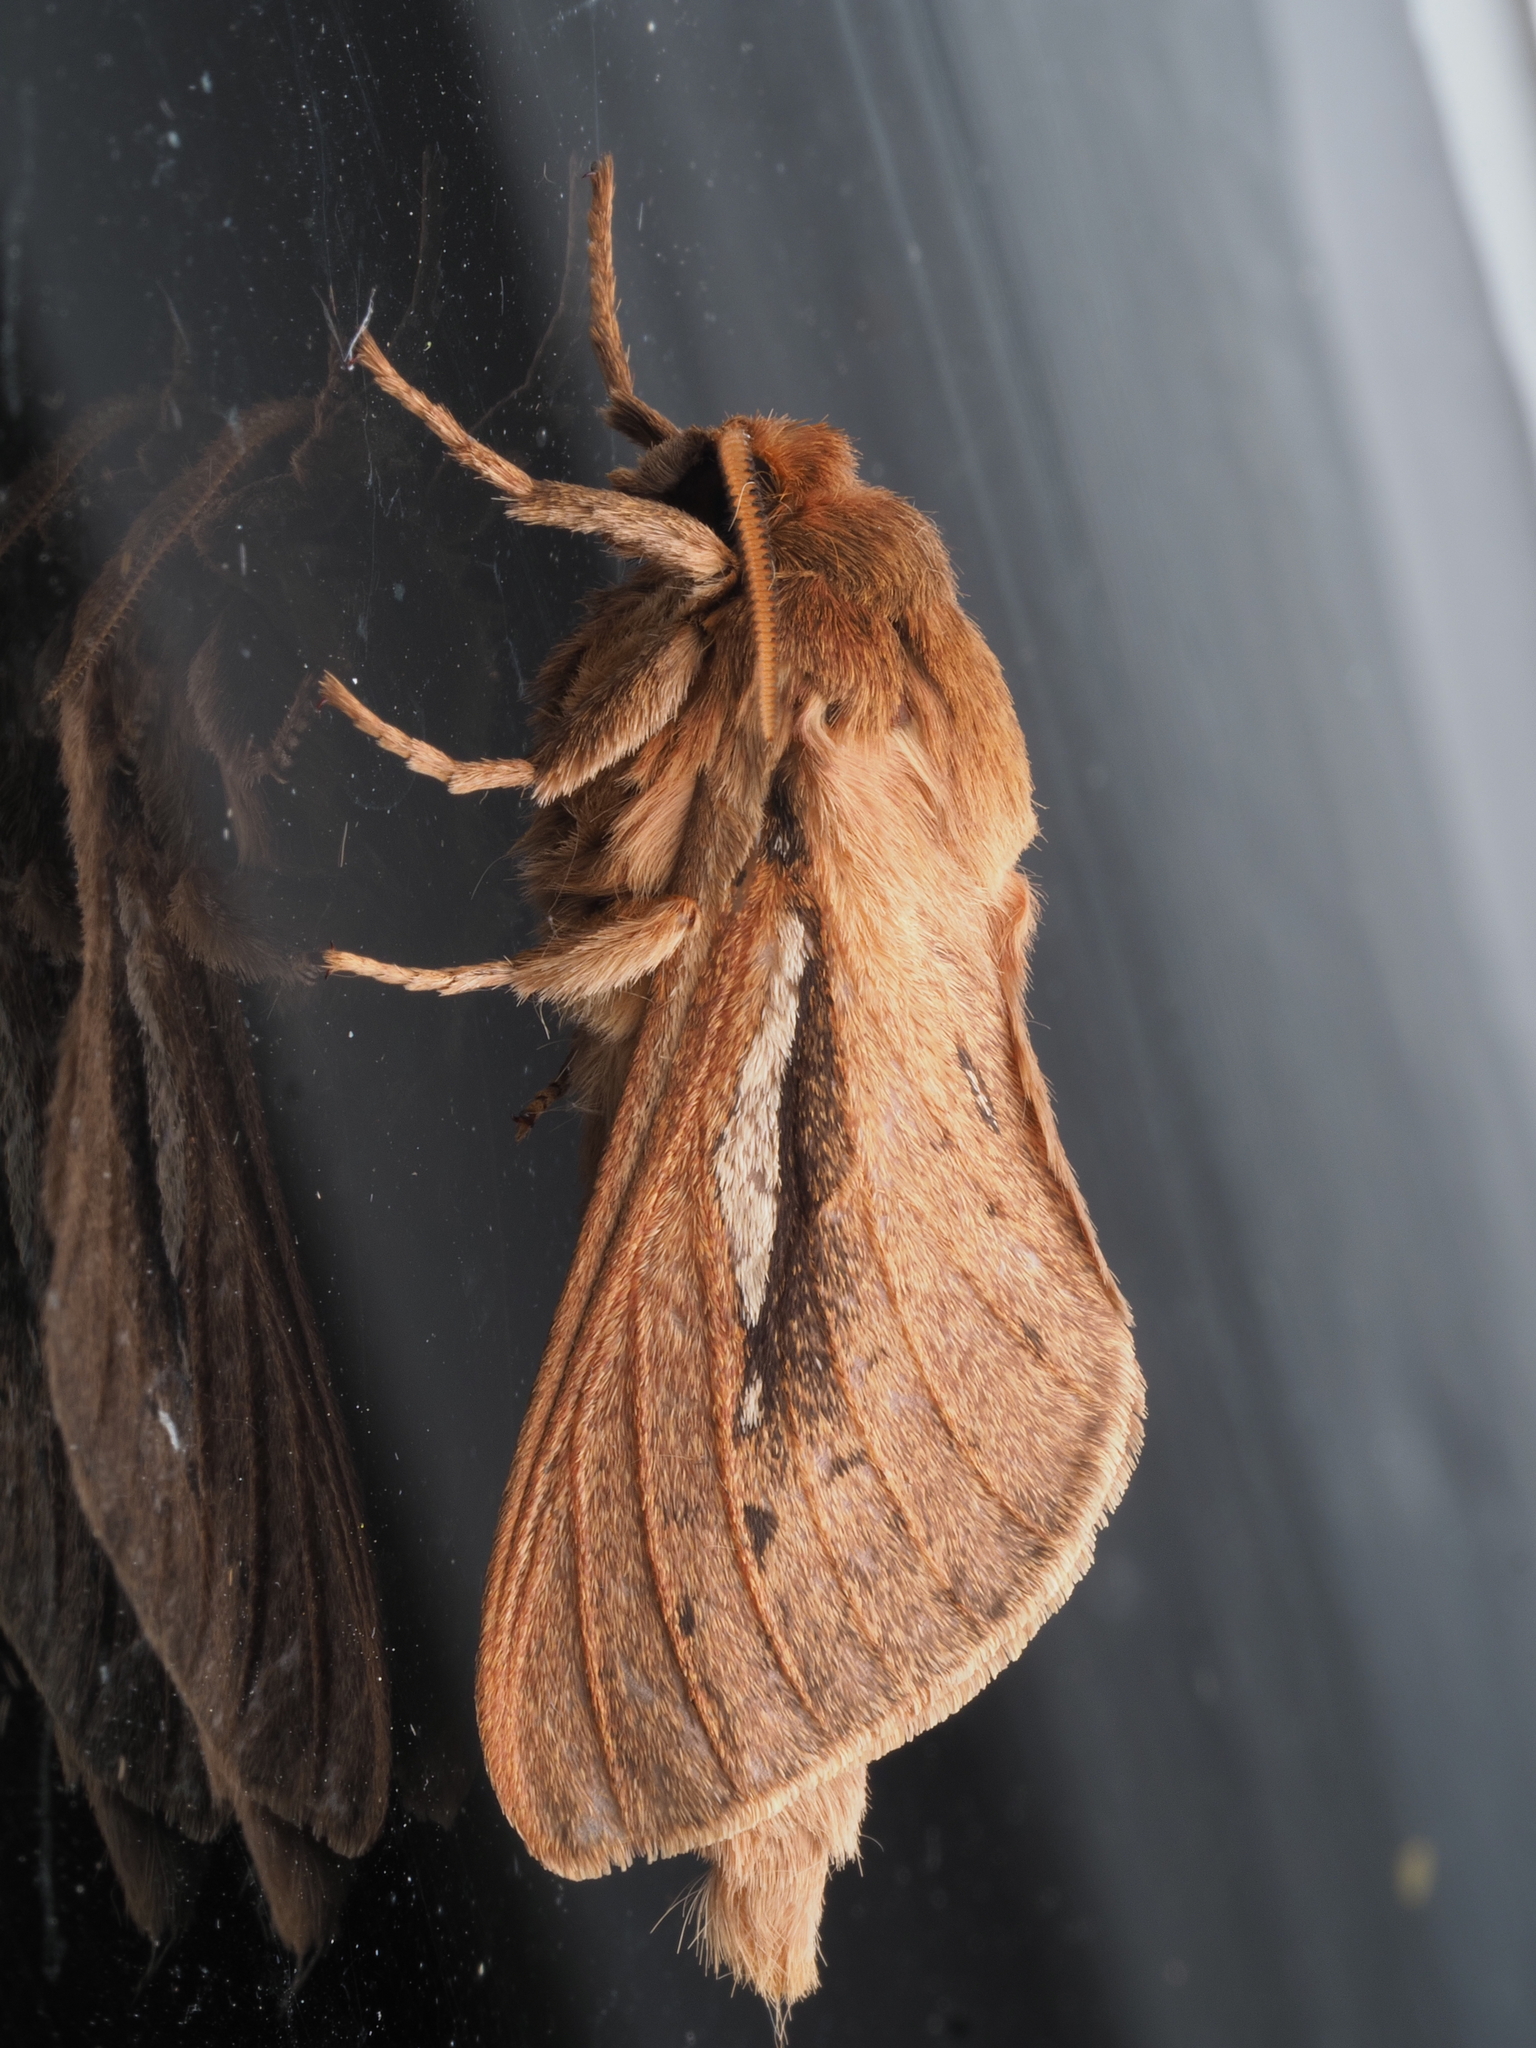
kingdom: Animalia
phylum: Arthropoda
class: Insecta
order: Lepidoptera
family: Hepialidae
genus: Wiseana
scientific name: Wiseana umbraculatus
